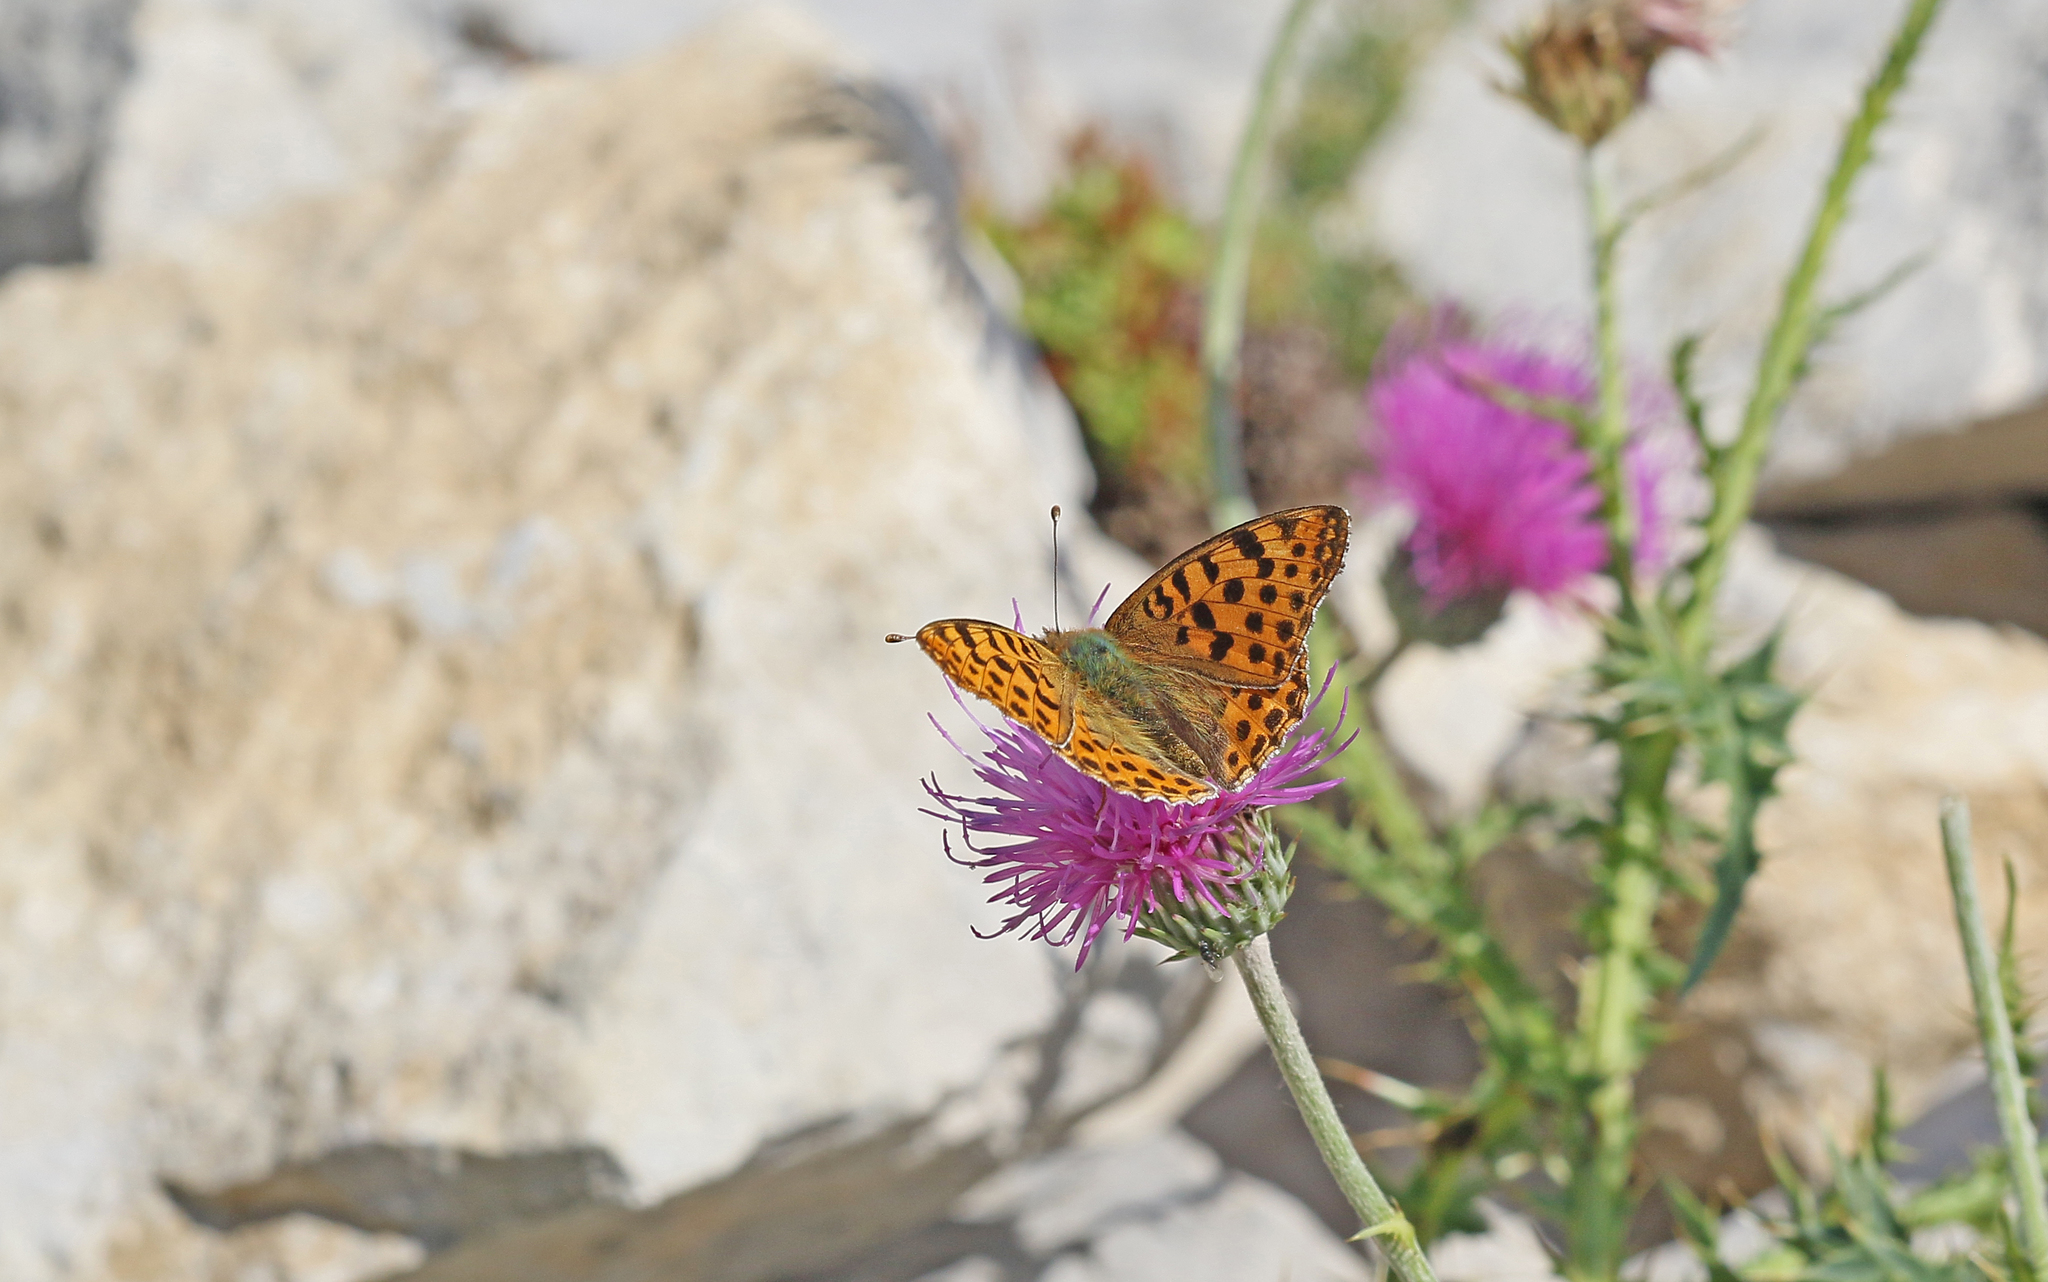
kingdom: Animalia
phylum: Arthropoda
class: Insecta
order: Lepidoptera
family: Nymphalidae
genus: Issoria
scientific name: Issoria lathonia
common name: Queen of spain fritillary
